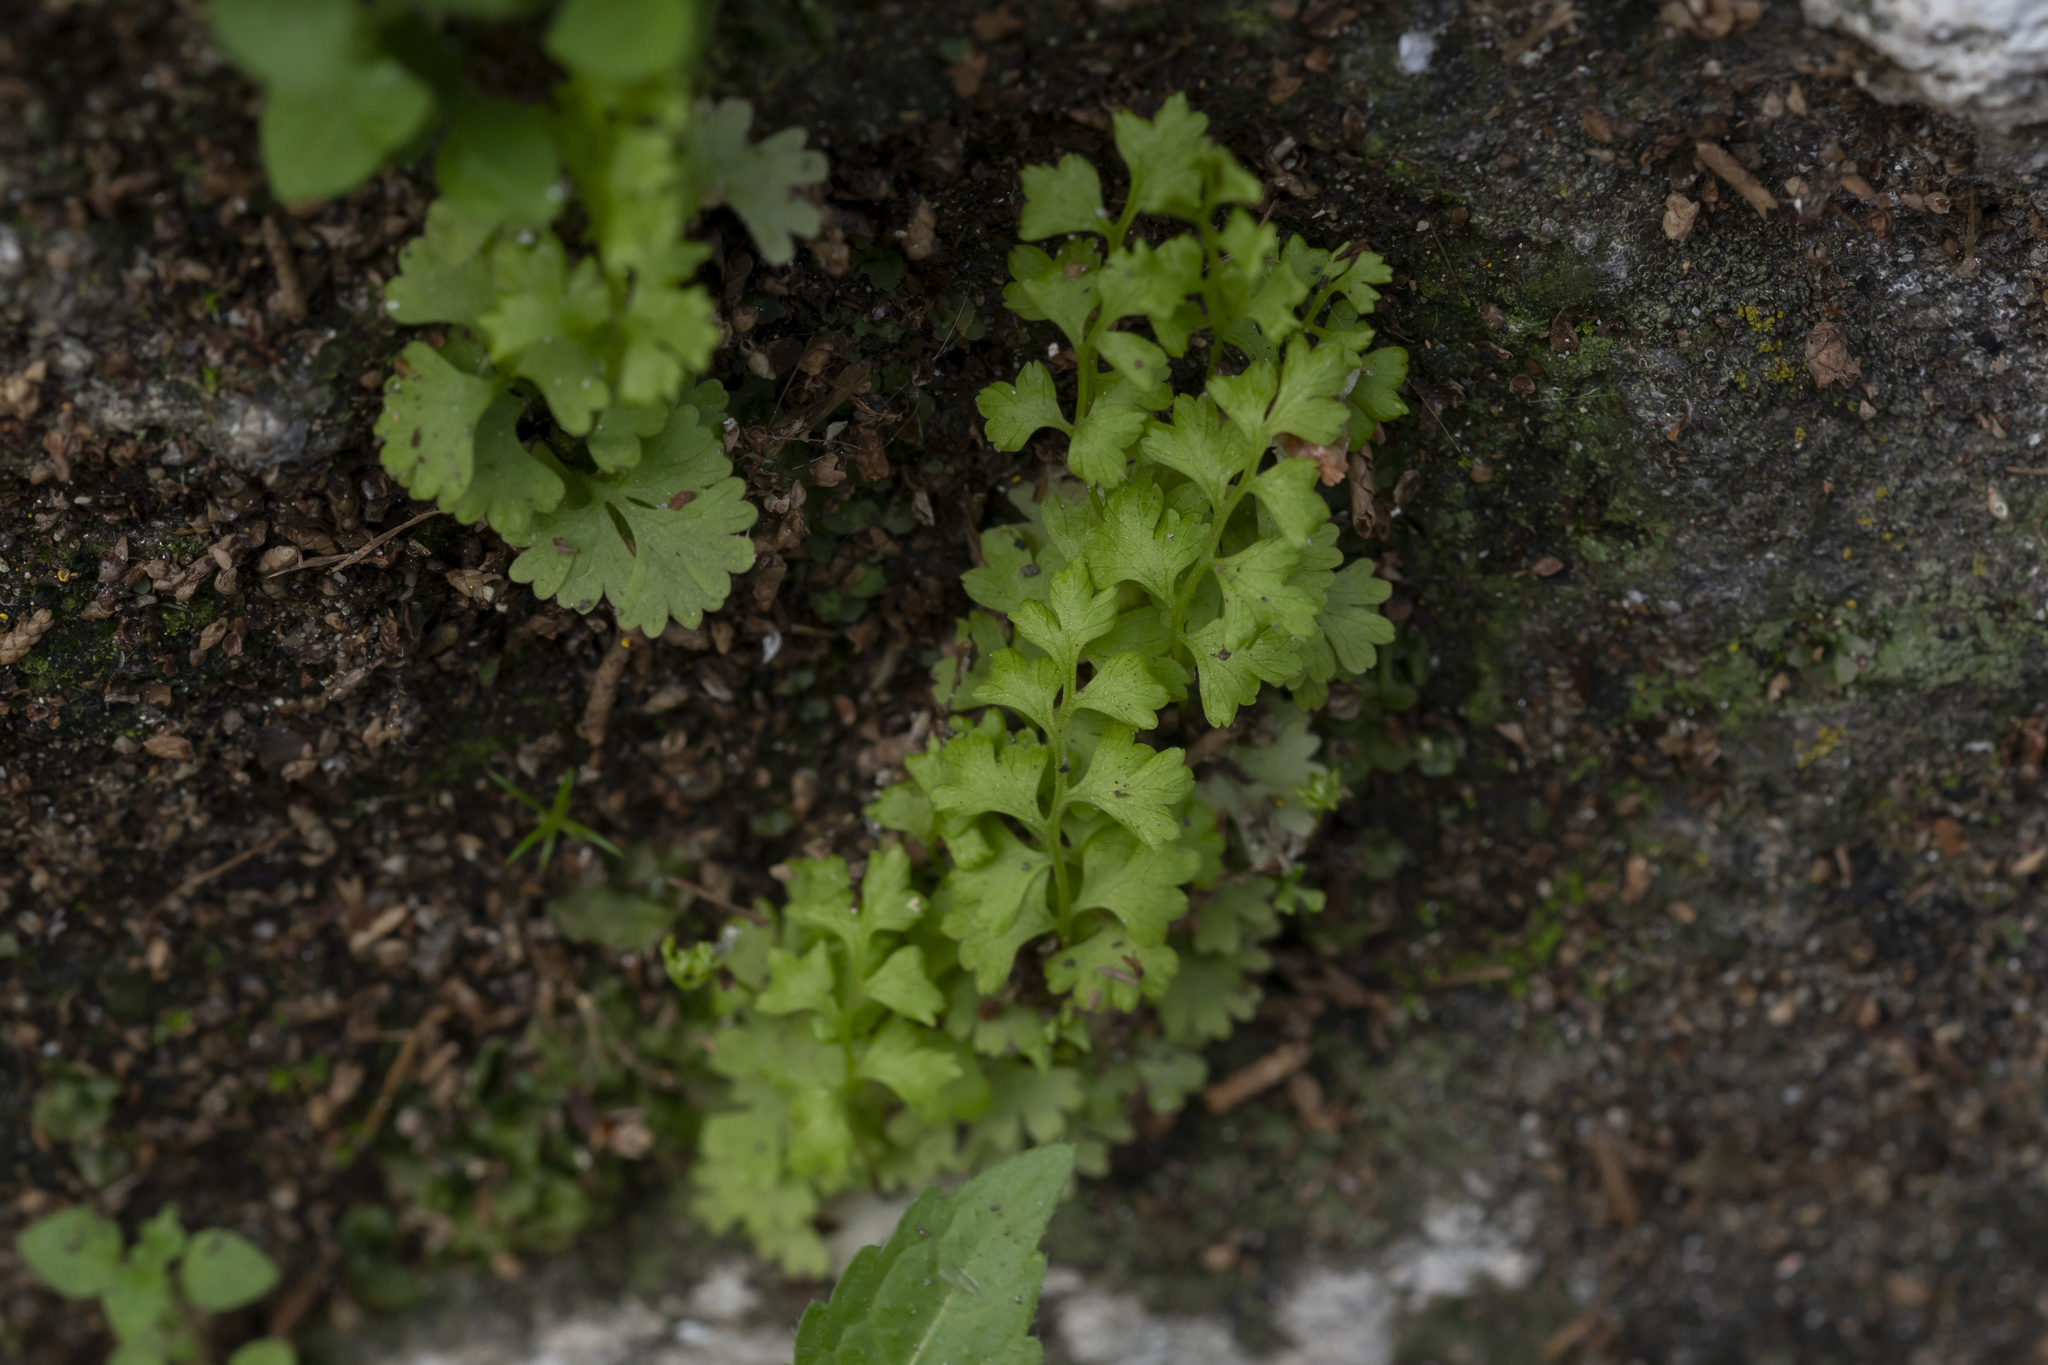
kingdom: Plantae
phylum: Tracheophyta
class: Polypodiopsida
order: Polypodiales
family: Pteridaceae
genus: Anogramma
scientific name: Anogramma leptophylla
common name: Jersey fern
